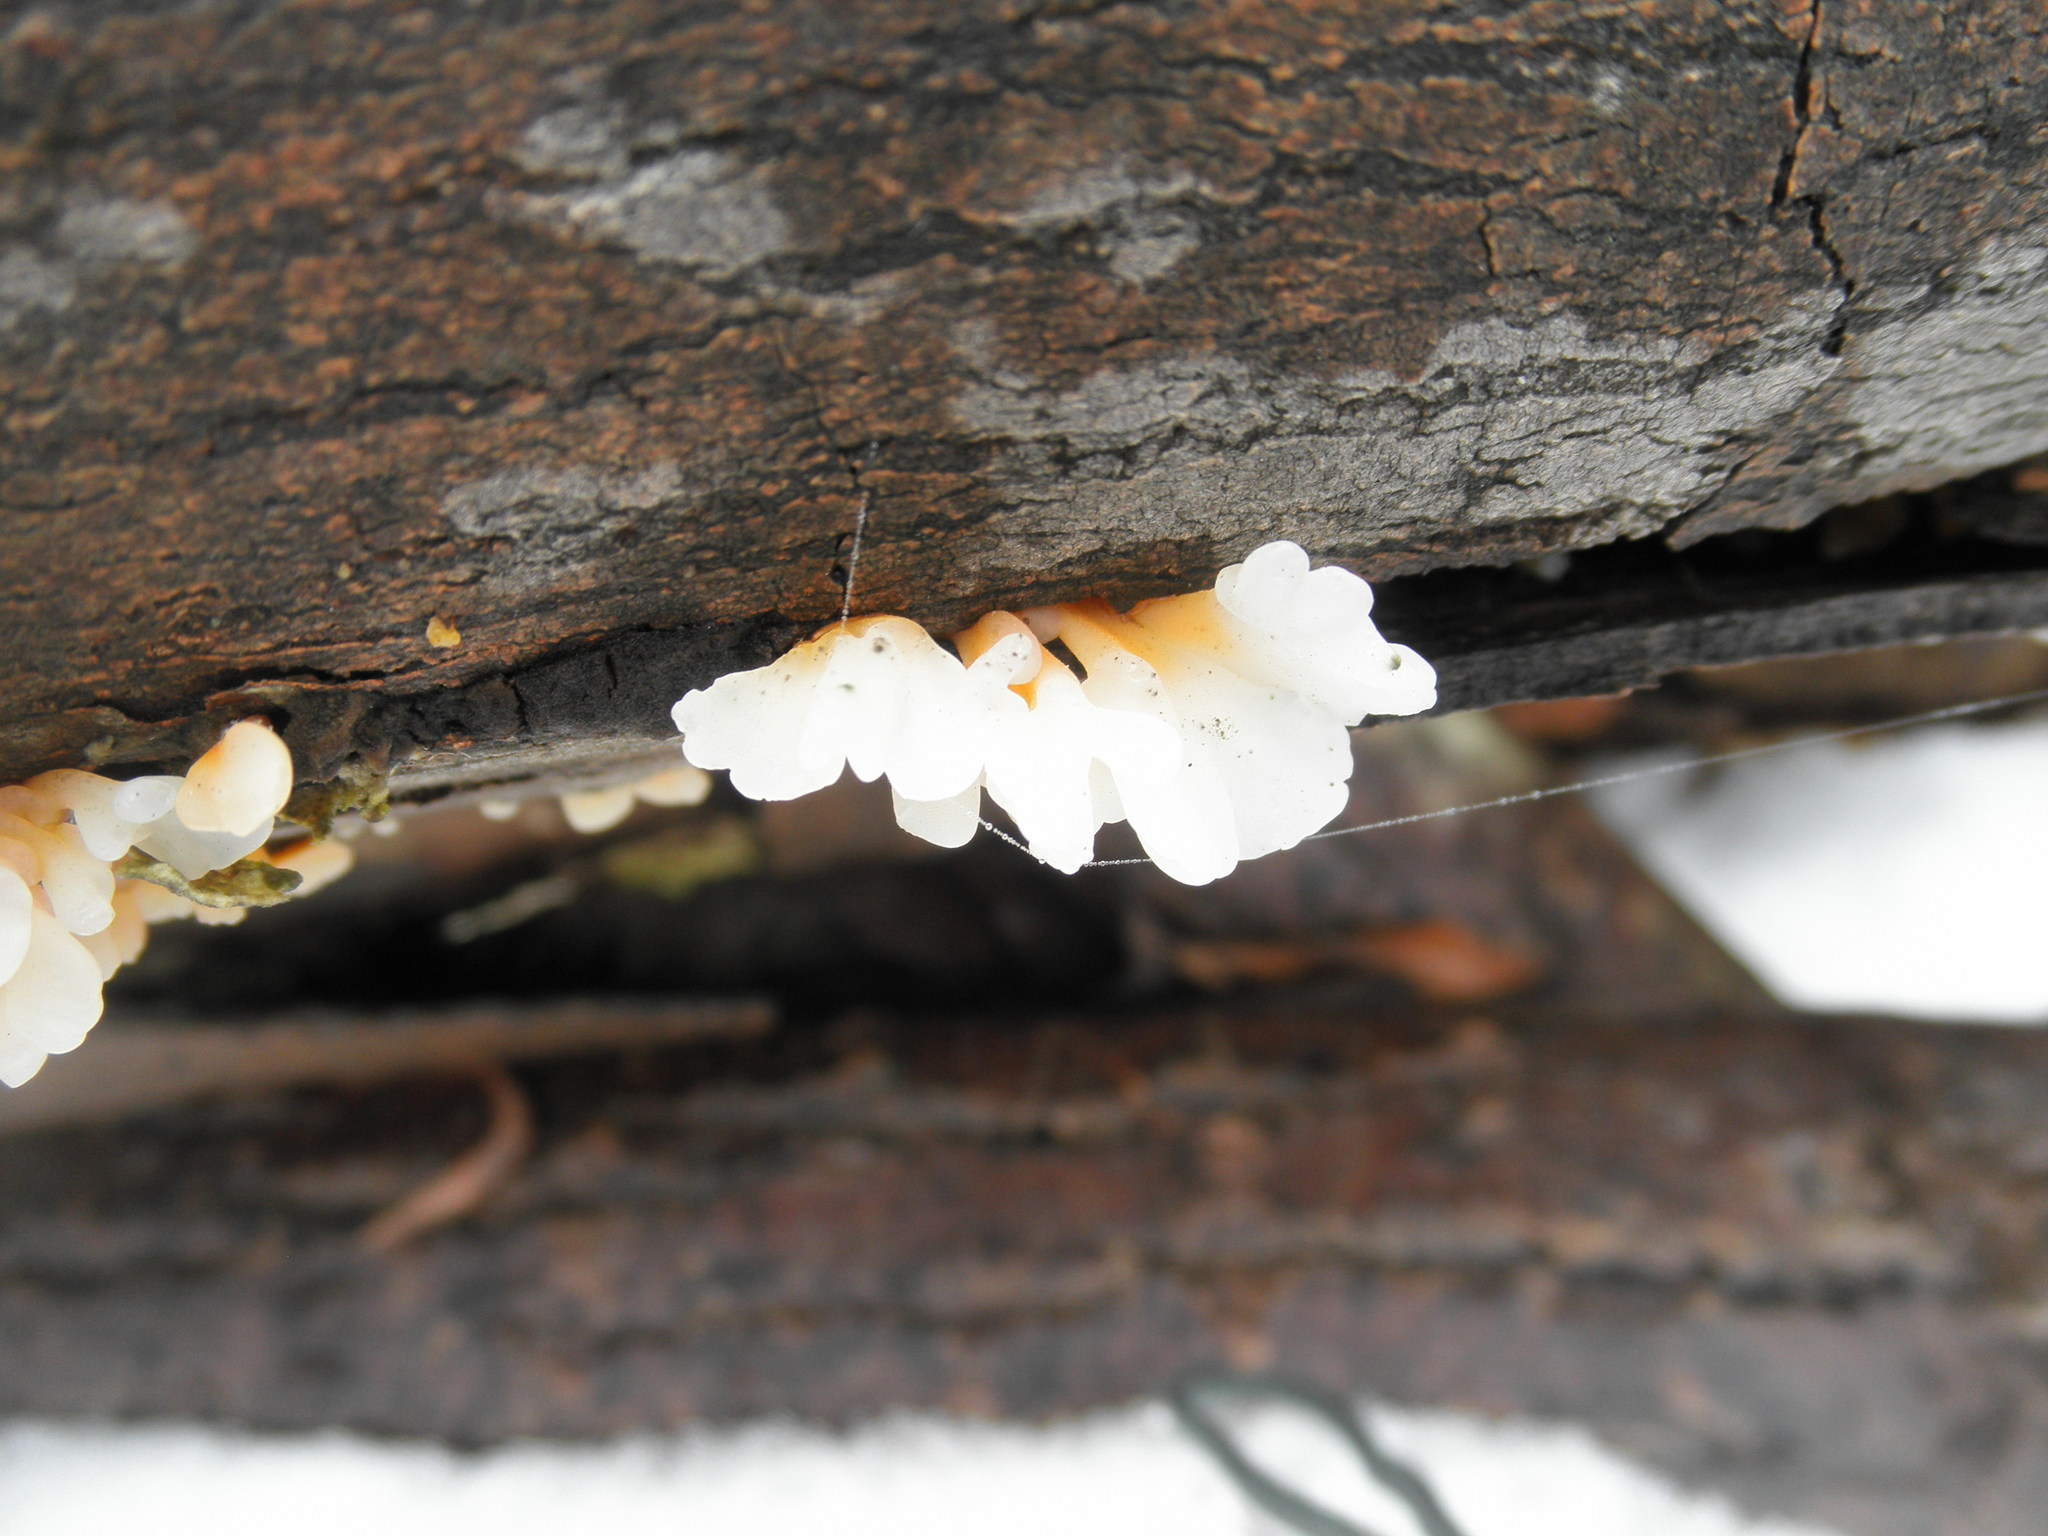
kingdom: Fungi
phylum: Basidiomycota
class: Dacrymycetes
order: Dacrymycetales
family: Dacrymycetaceae
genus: Dacrymyces
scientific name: Dacrymyces spathularius
